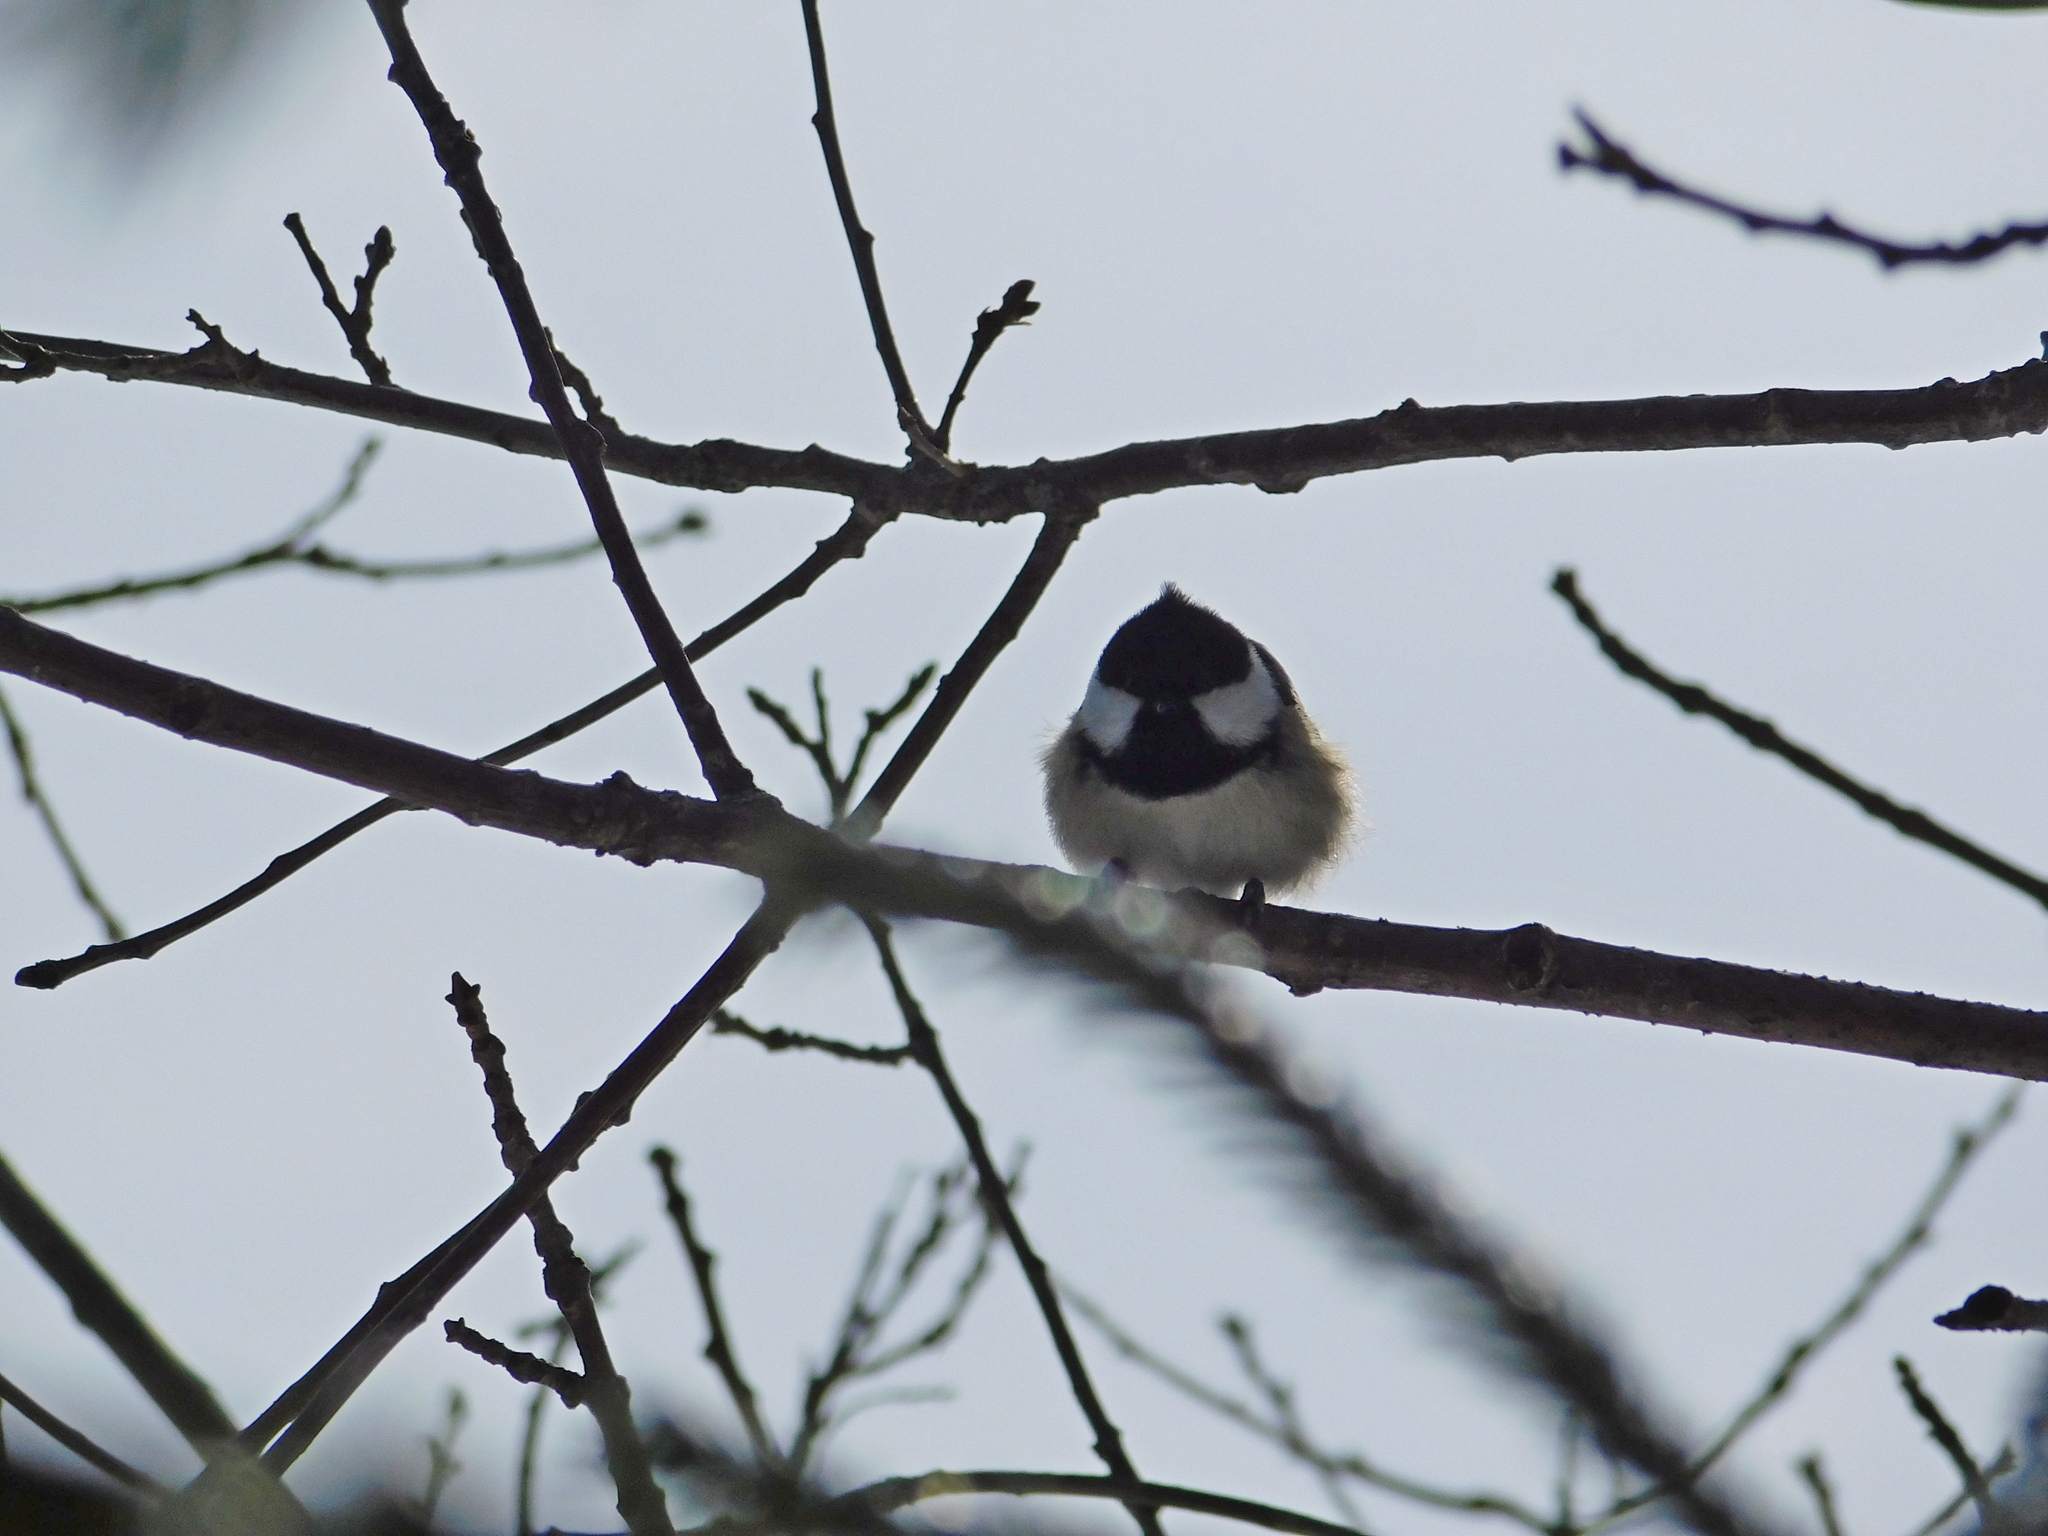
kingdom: Animalia
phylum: Chordata
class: Aves
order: Passeriformes
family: Paridae
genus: Periparus
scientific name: Periparus ater
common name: Coal tit
